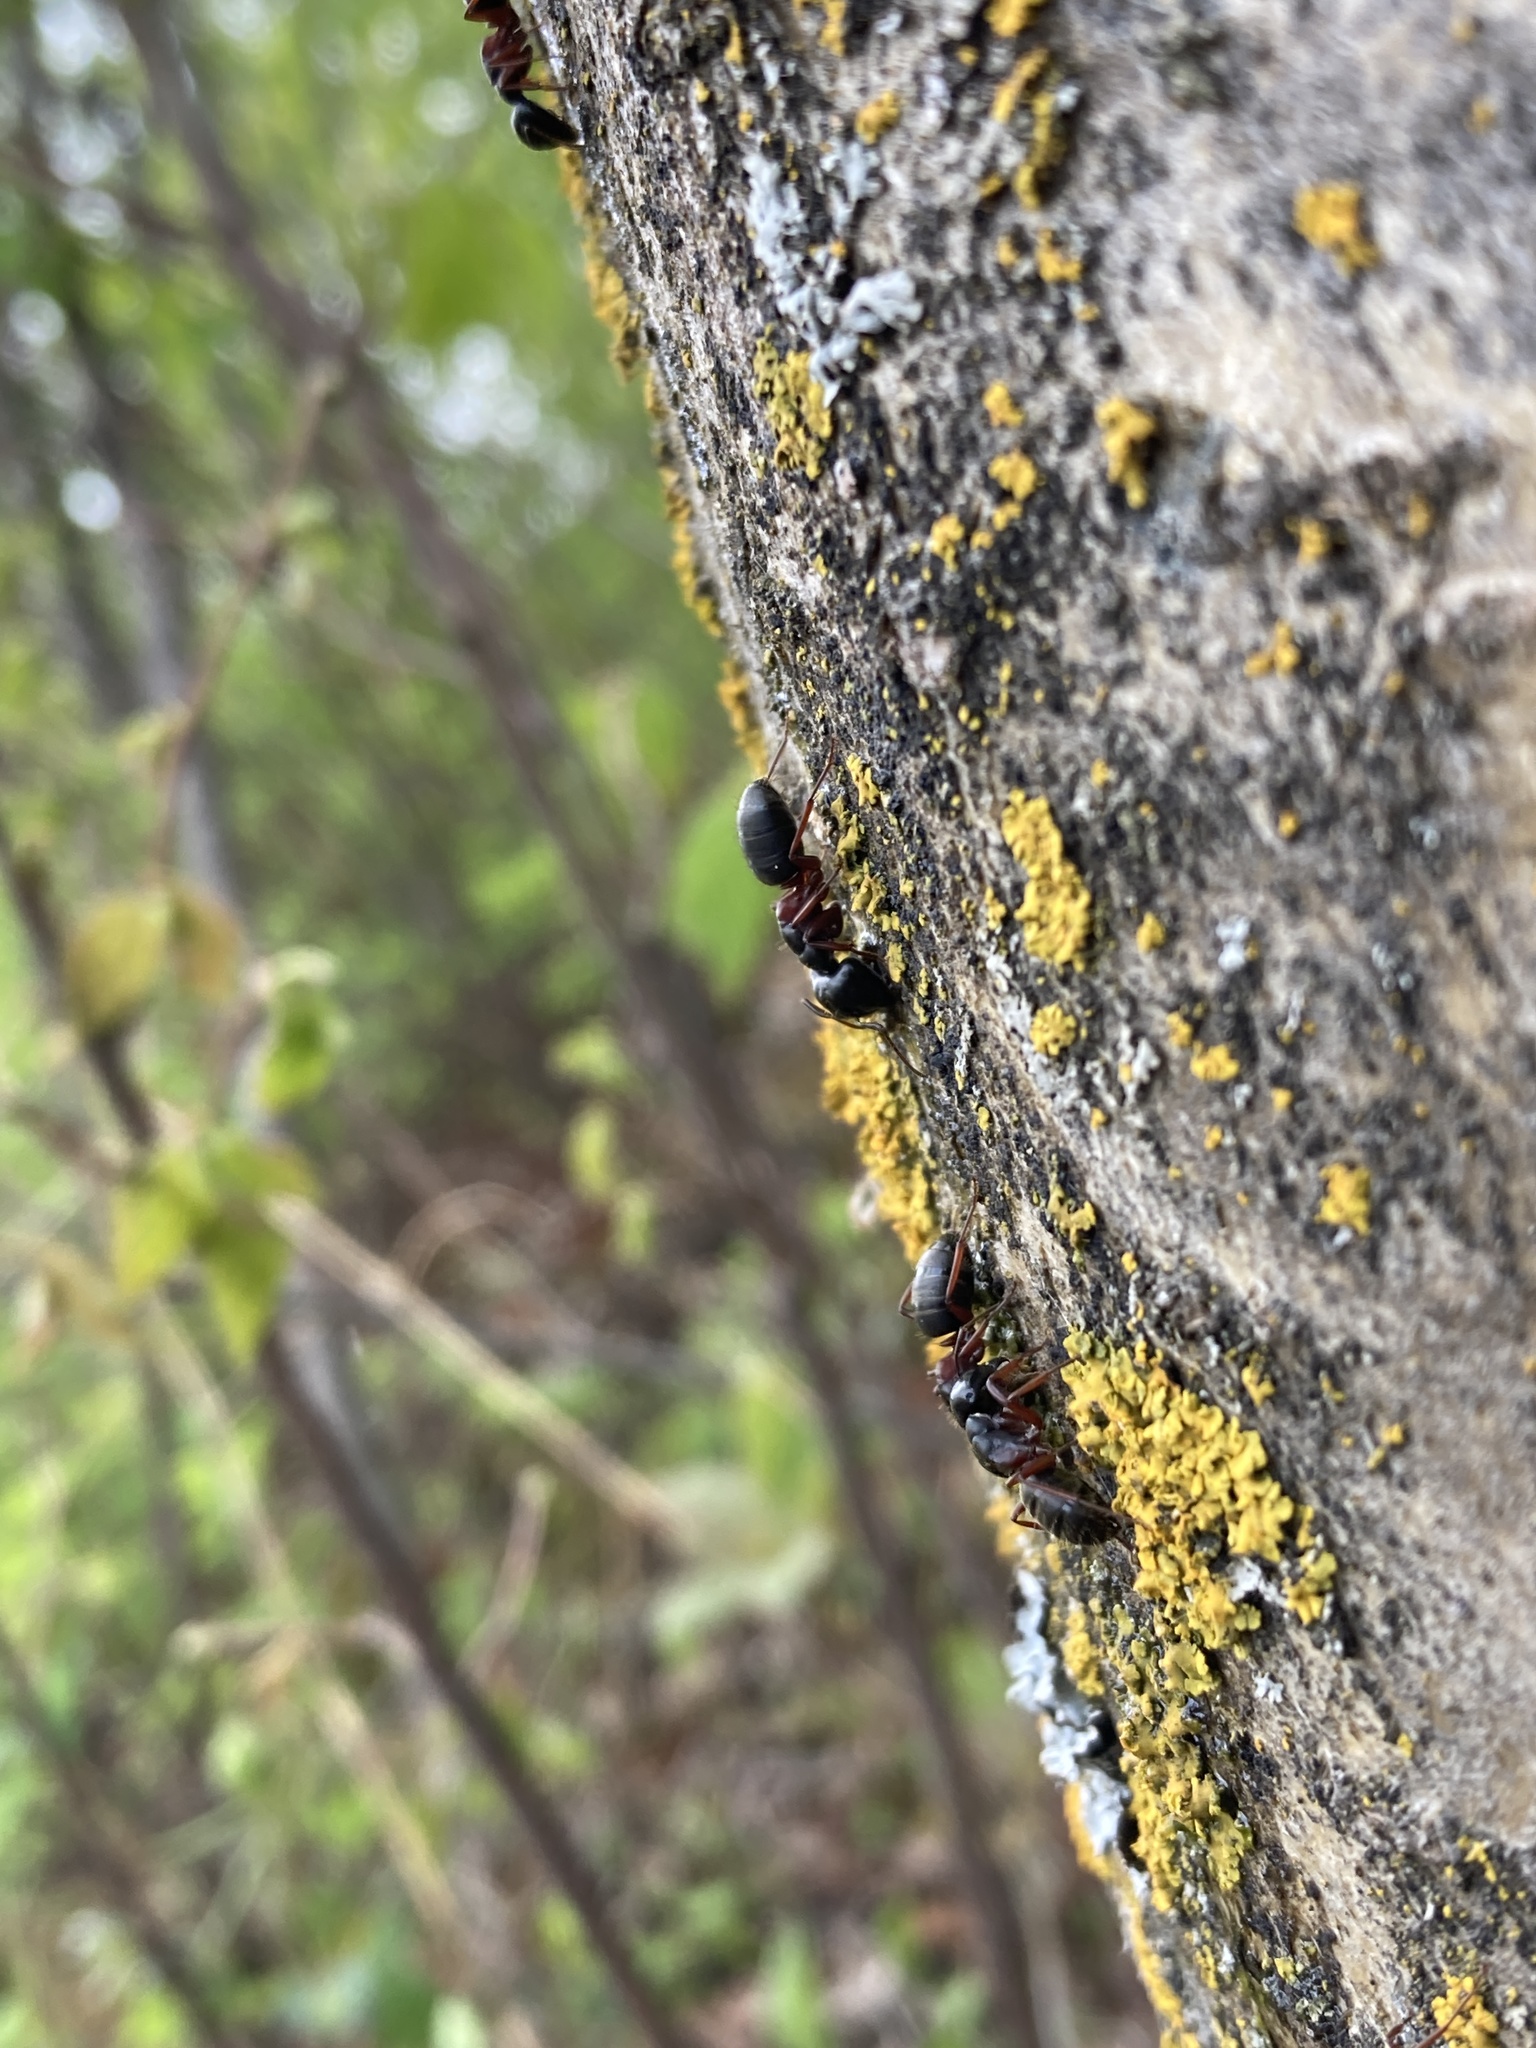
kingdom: Animalia
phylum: Arthropoda
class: Insecta
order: Hymenoptera
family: Formicidae
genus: Camponotus
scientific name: Camponotus herculeanus
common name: Hercules ant
